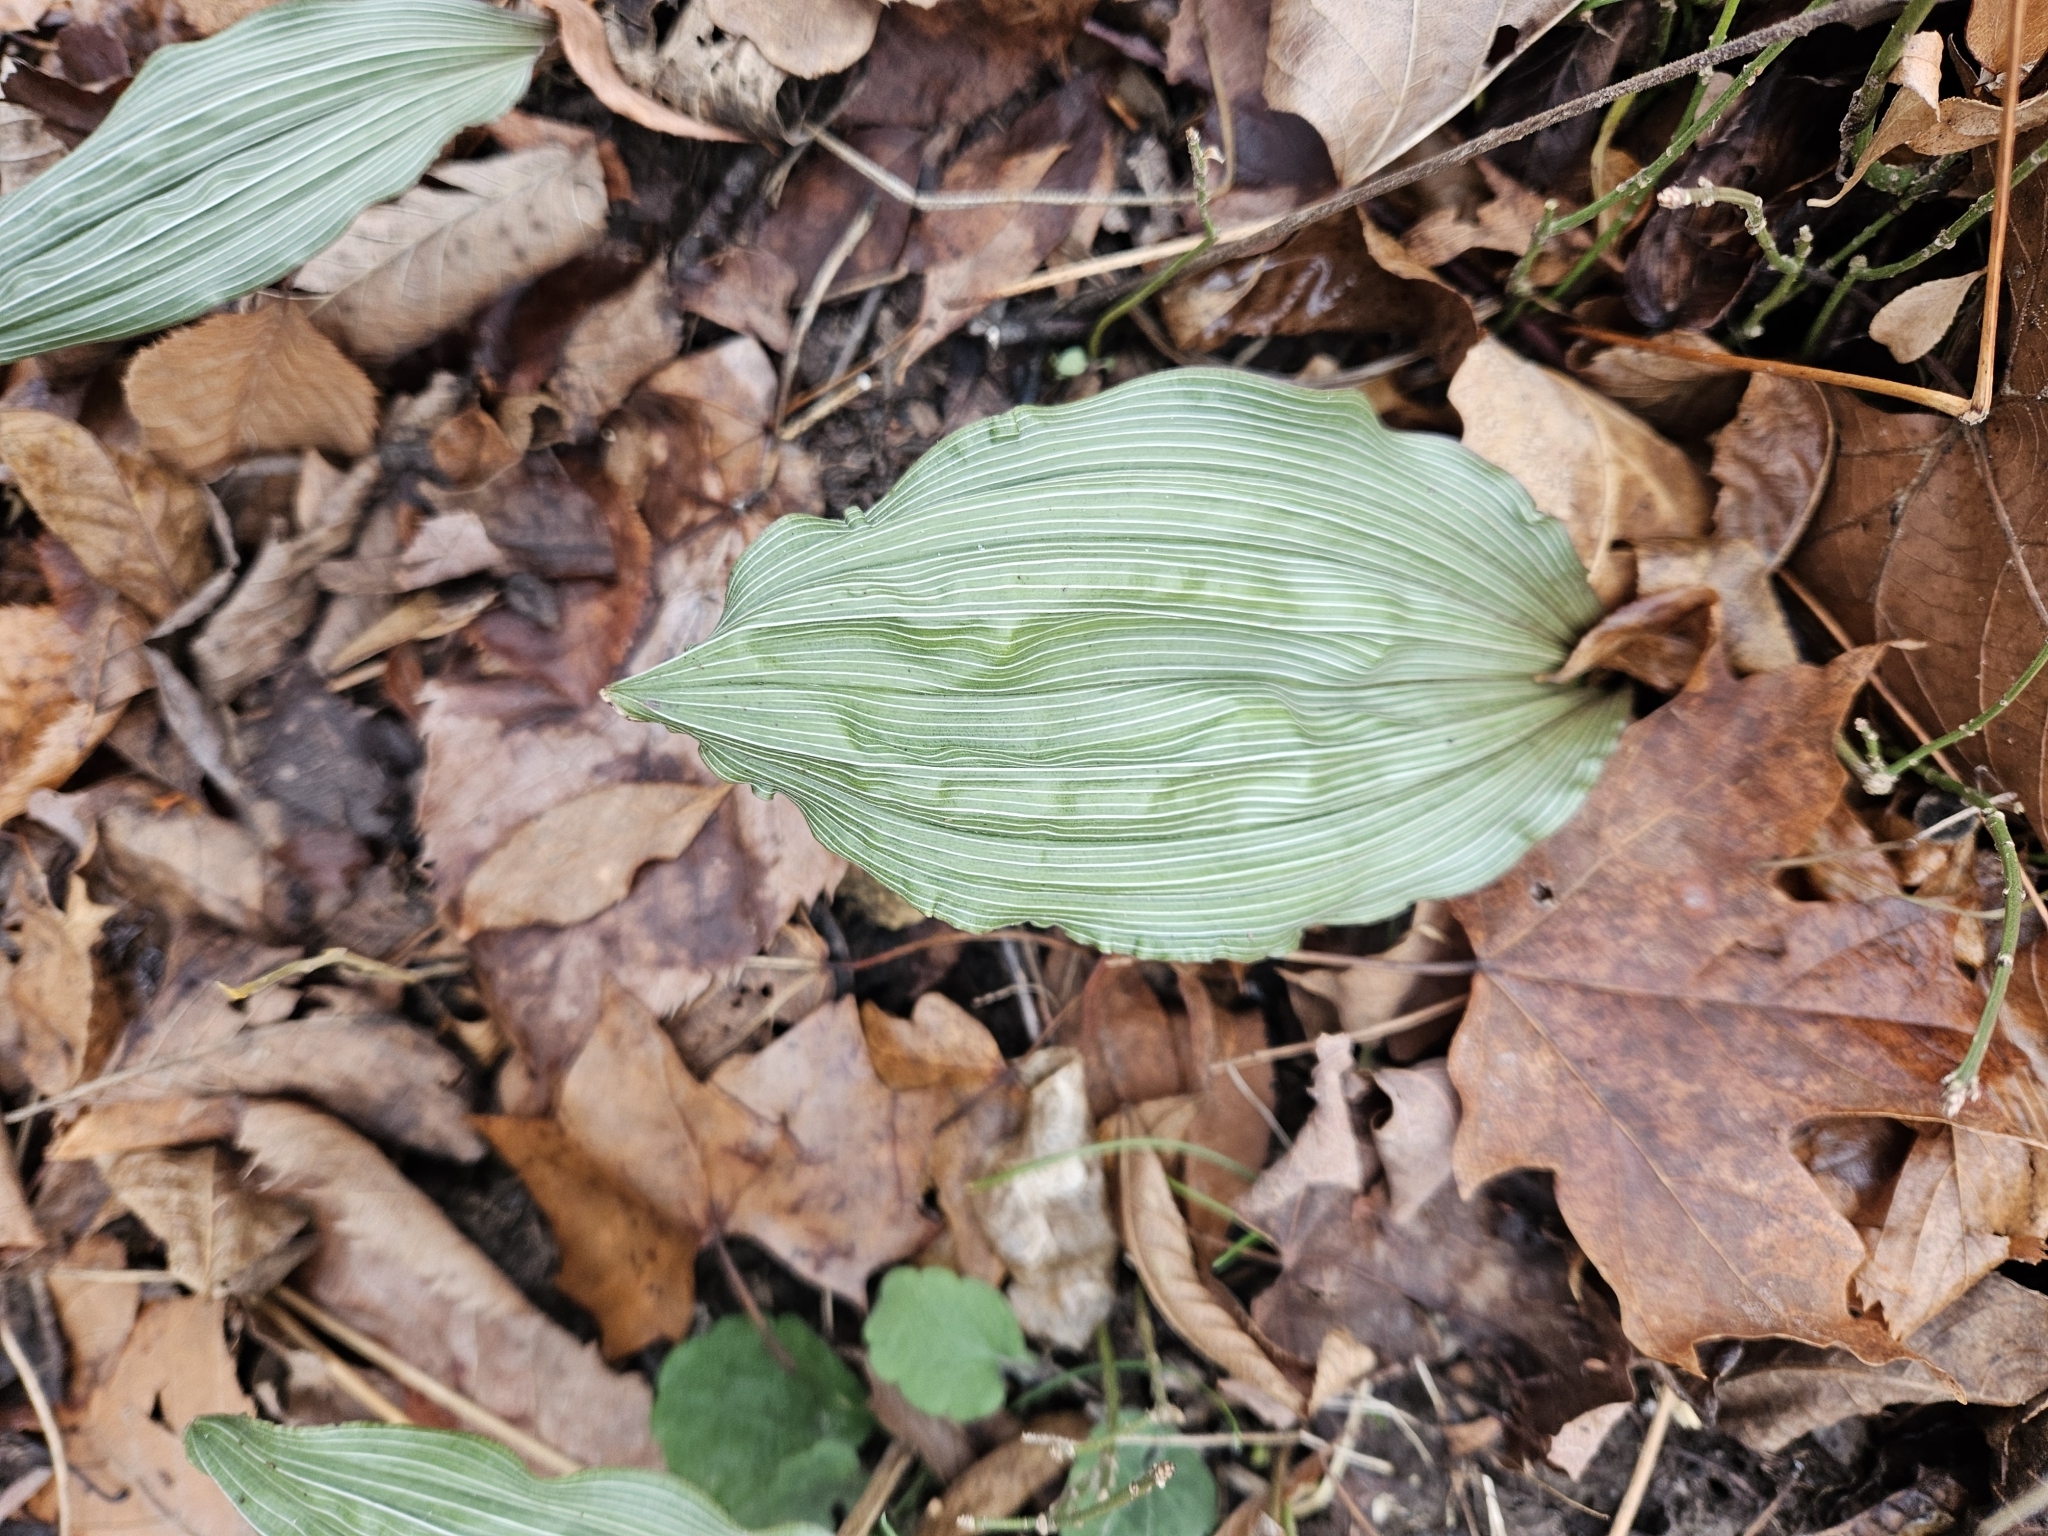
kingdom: Plantae
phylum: Tracheophyta
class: Liliopsida
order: Asparagales
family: Orchidaceae
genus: Aplectrum
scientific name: Aplectrum hyemale
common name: Adam-and-eve
